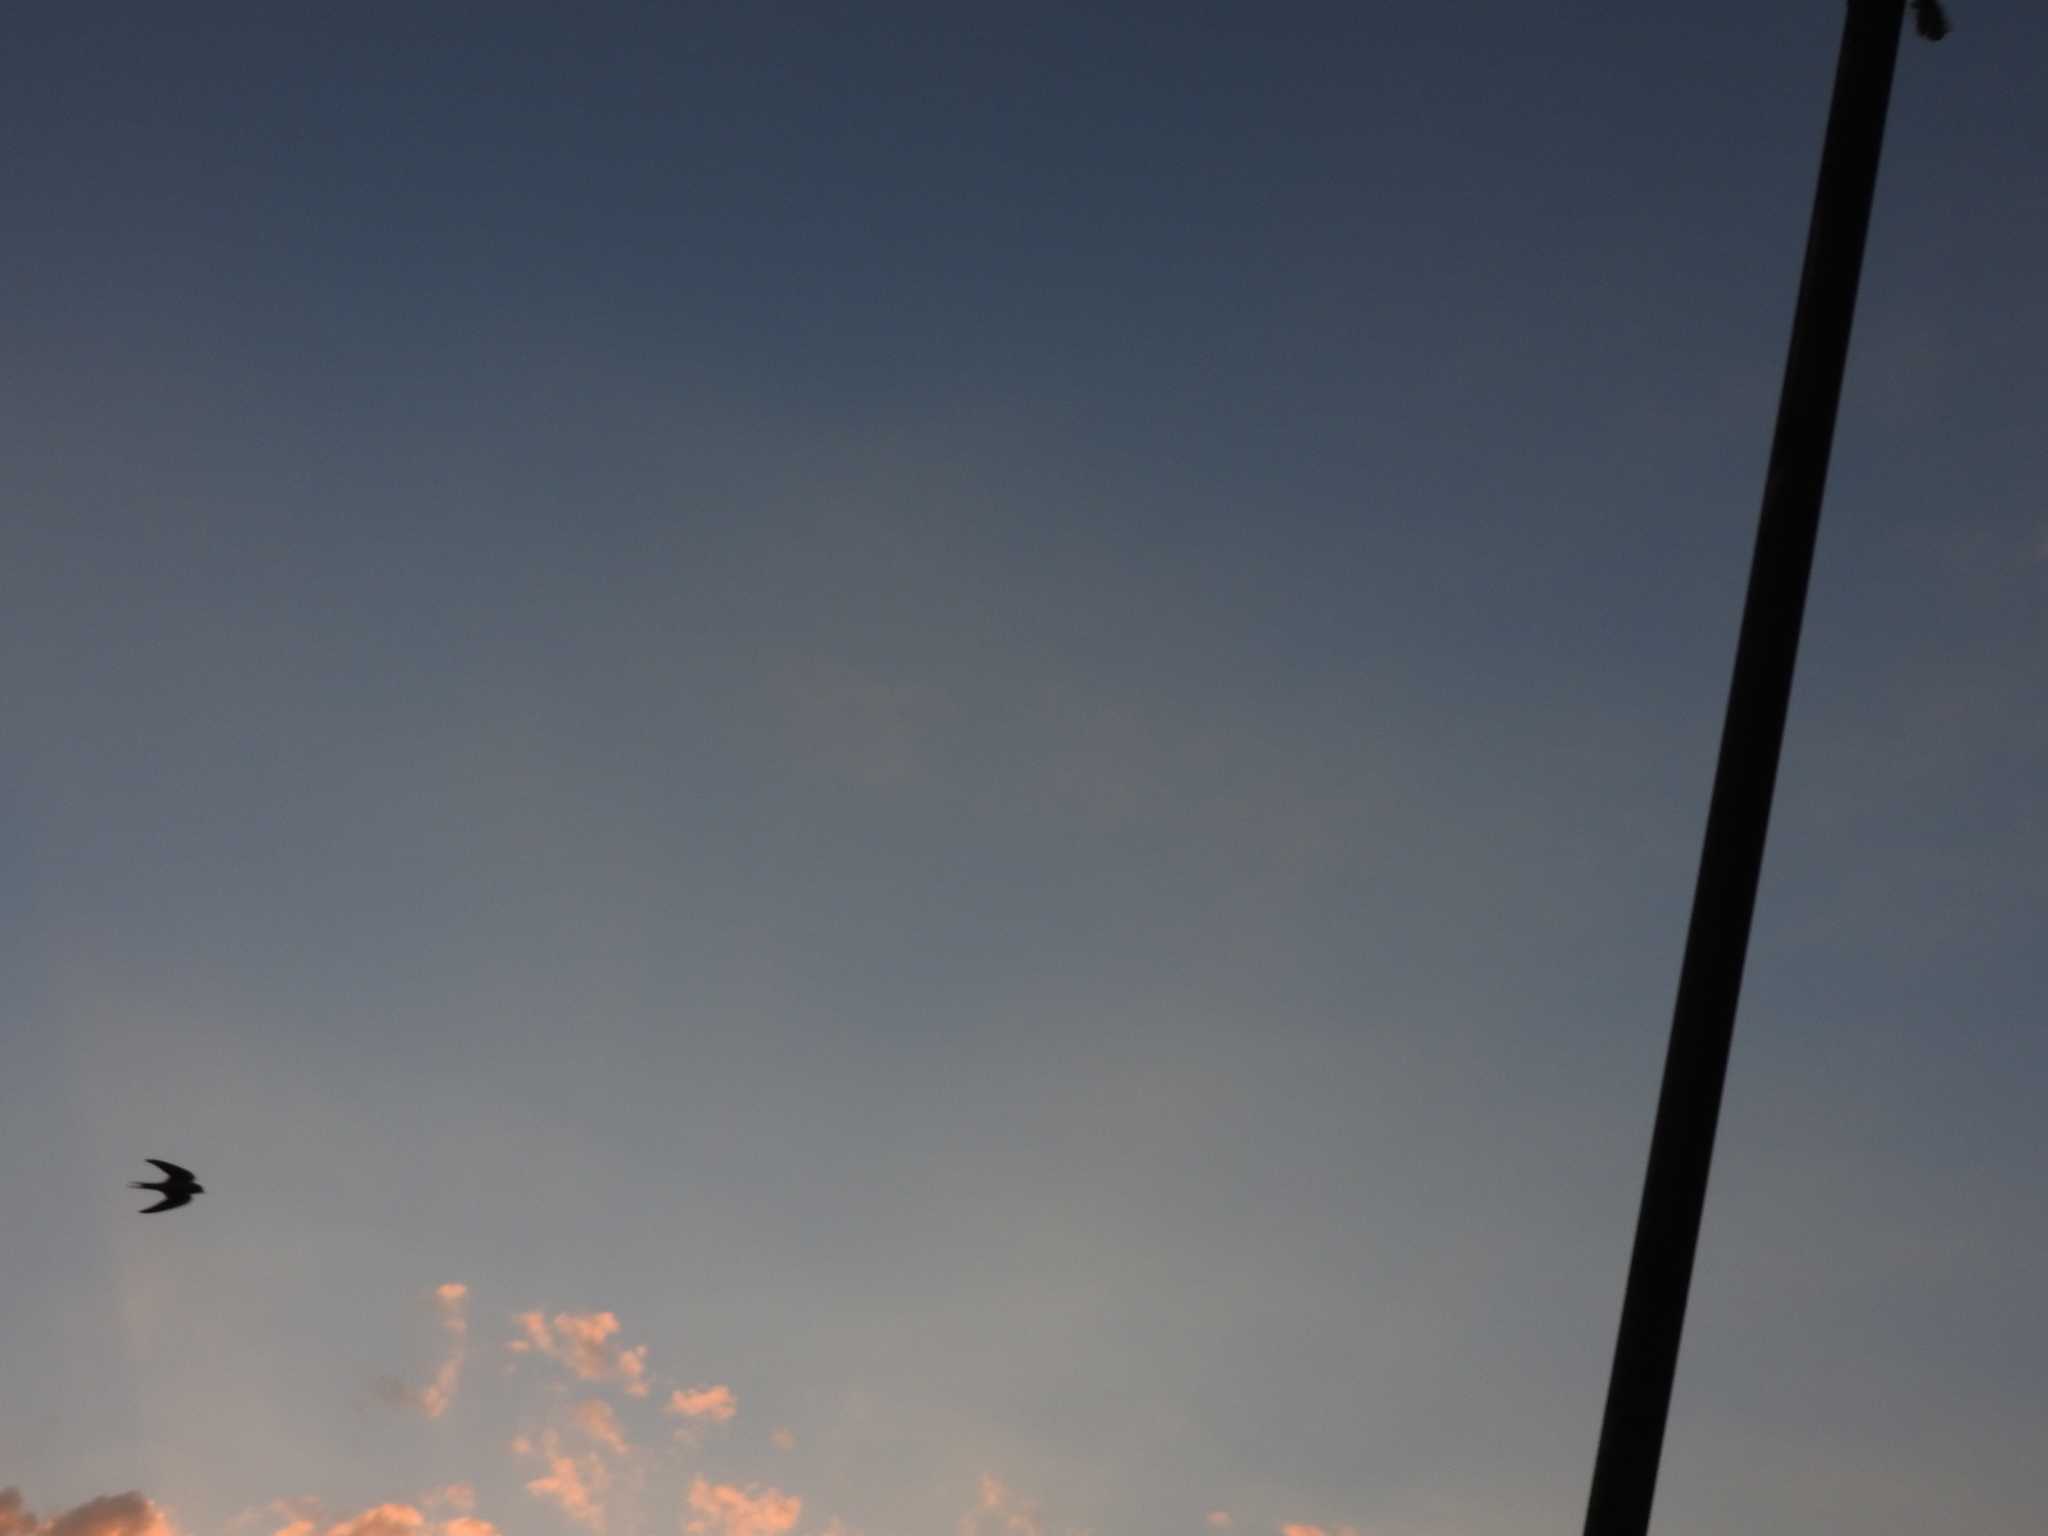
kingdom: Animalia
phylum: Chordata
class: Aves
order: Passeriformes
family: Hirundinidae
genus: Hirundo
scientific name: Hirundo rustica
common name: Barn swallow
